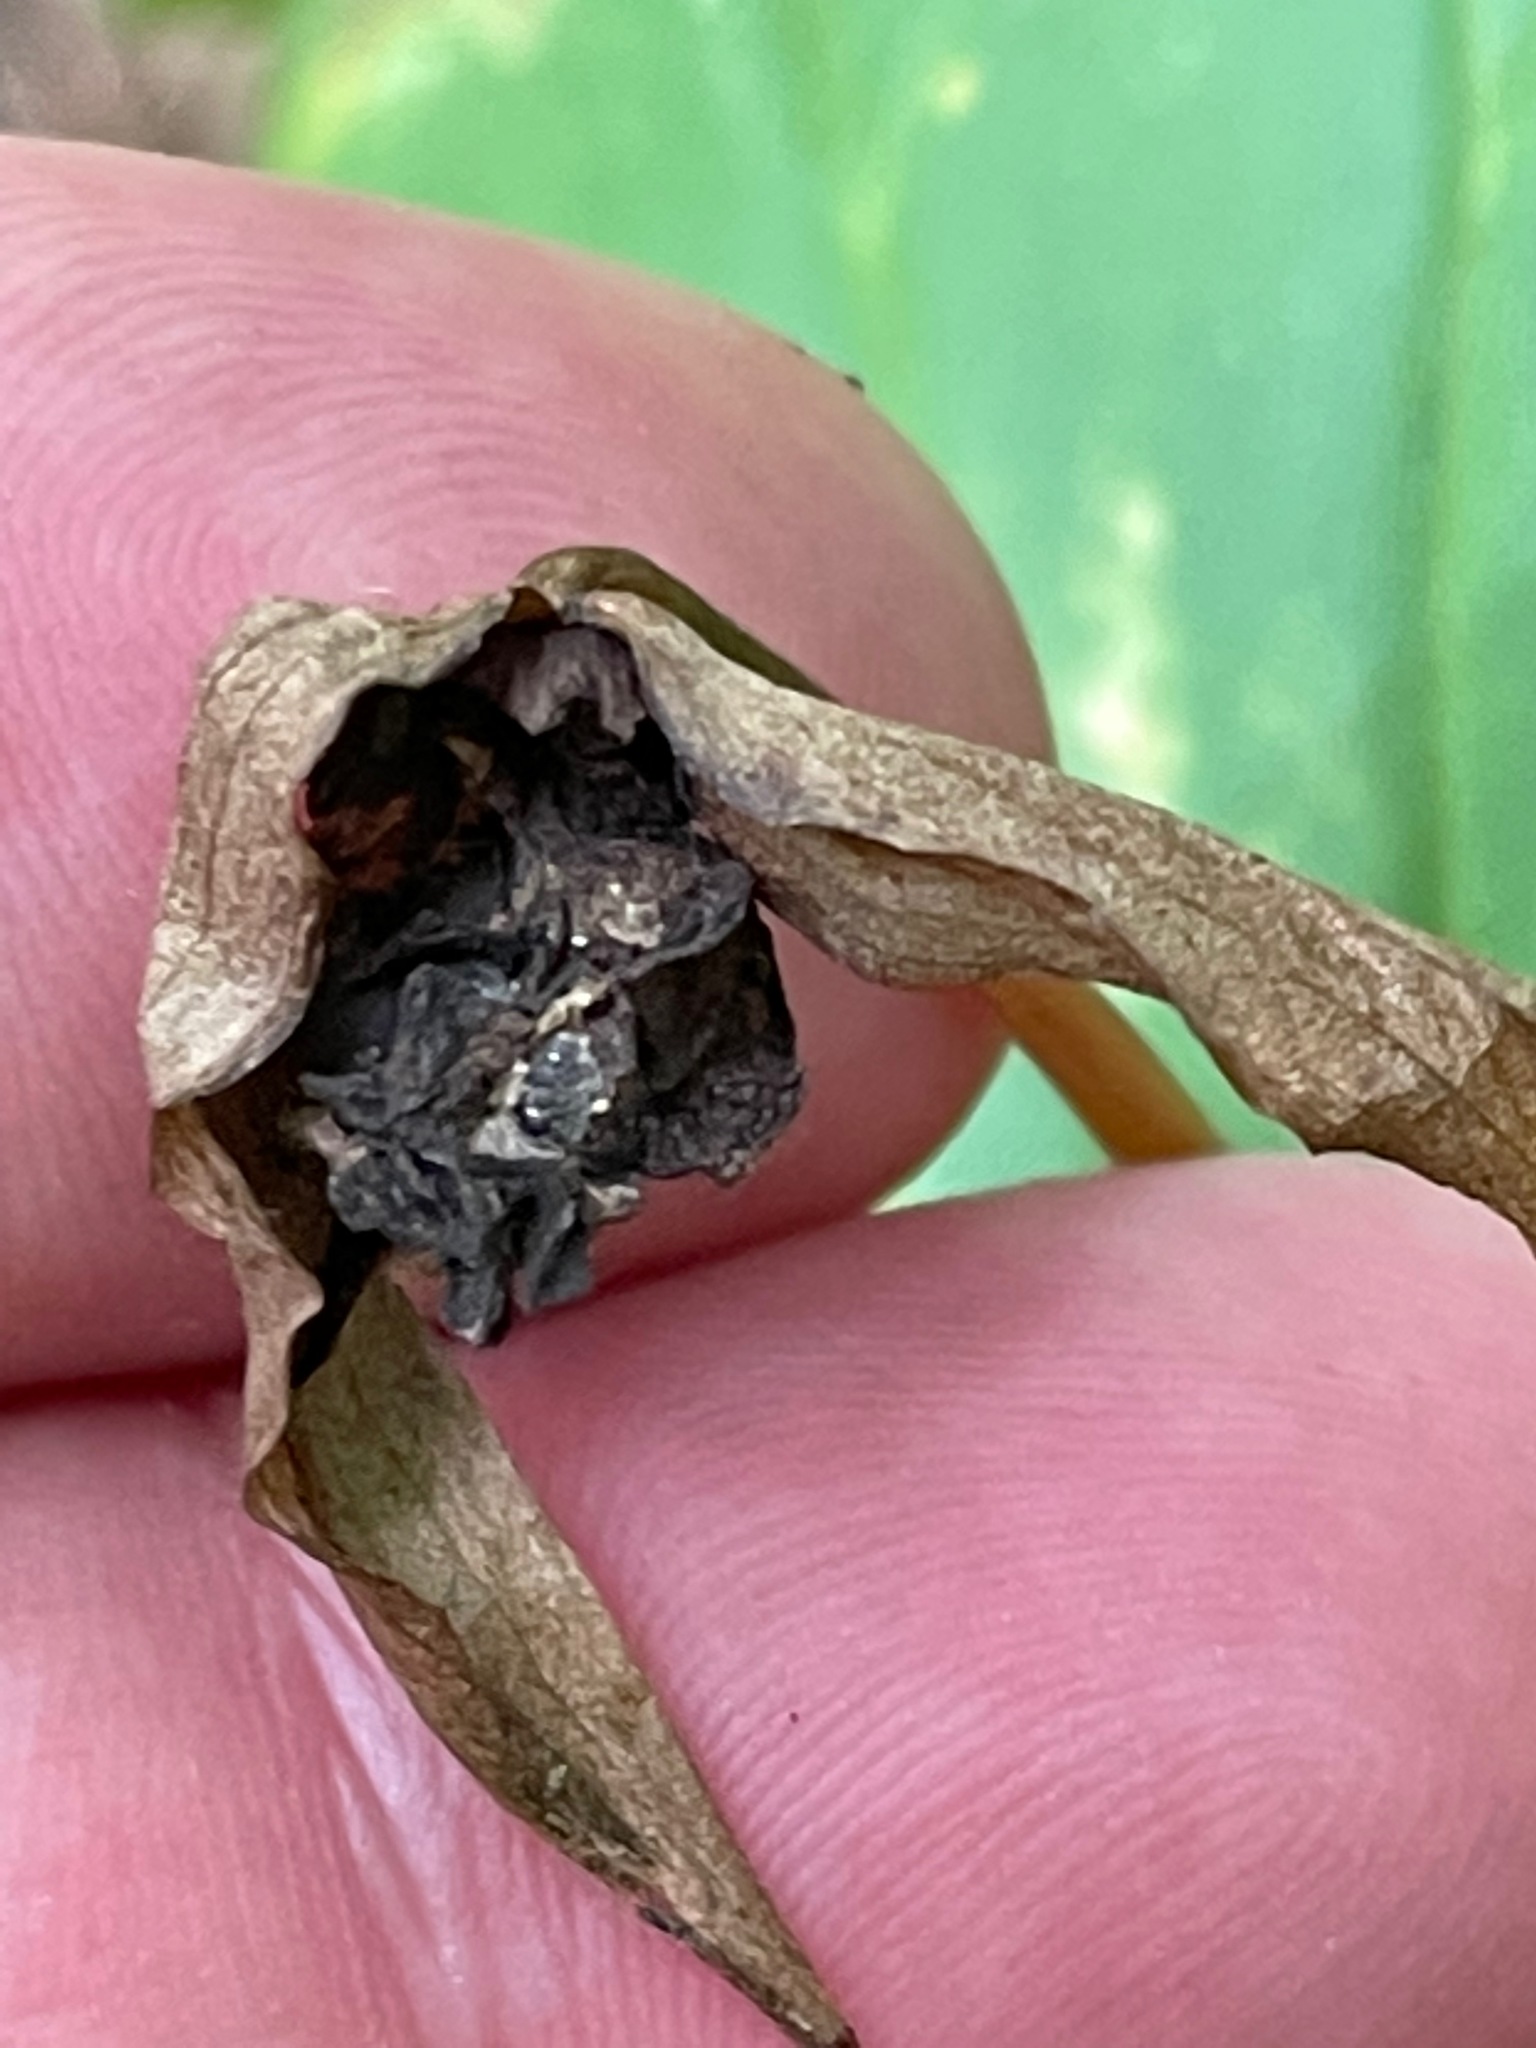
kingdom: Plantae
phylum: Tracheophyta
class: Liliopsida
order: Liliales
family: Melanthiaceae
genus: Trillium
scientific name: Trillium erectum
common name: Purple trillium
